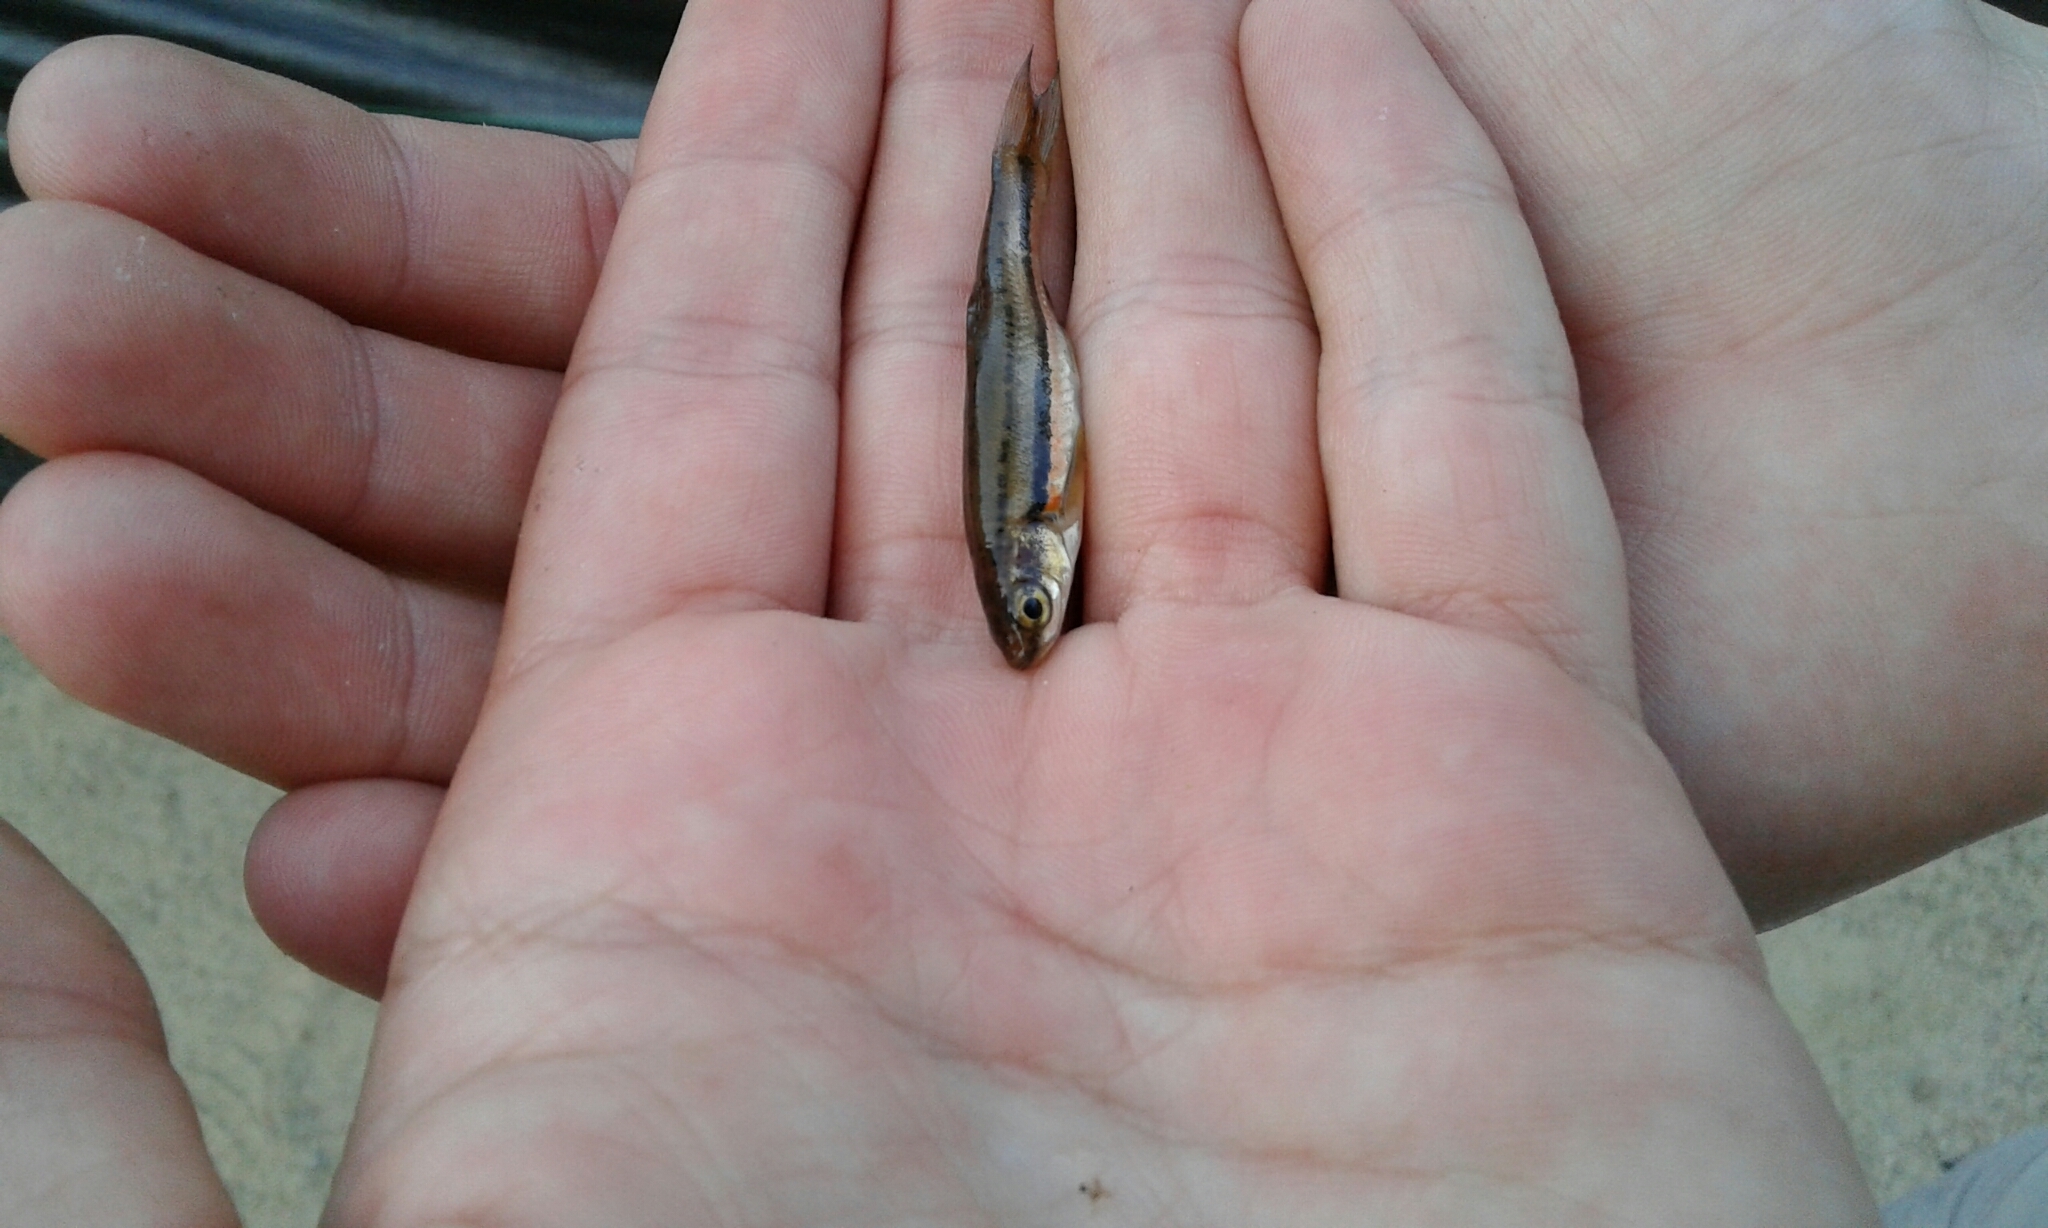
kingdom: Animalia
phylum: Chordata
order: Cypriniformes
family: Cyprinidae
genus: Chrosomus
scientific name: Chrosomus eos
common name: Northern redbelly dace
